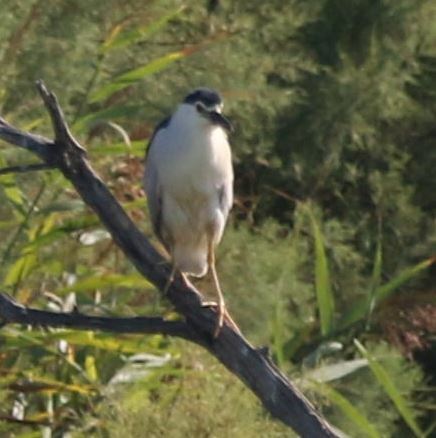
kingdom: Animalia
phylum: Chordata
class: Aves
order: Pelecaniformes
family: Ardeidae
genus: Nycticorax
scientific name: Nycticorax nycticorax
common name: Black-crowned night heron
